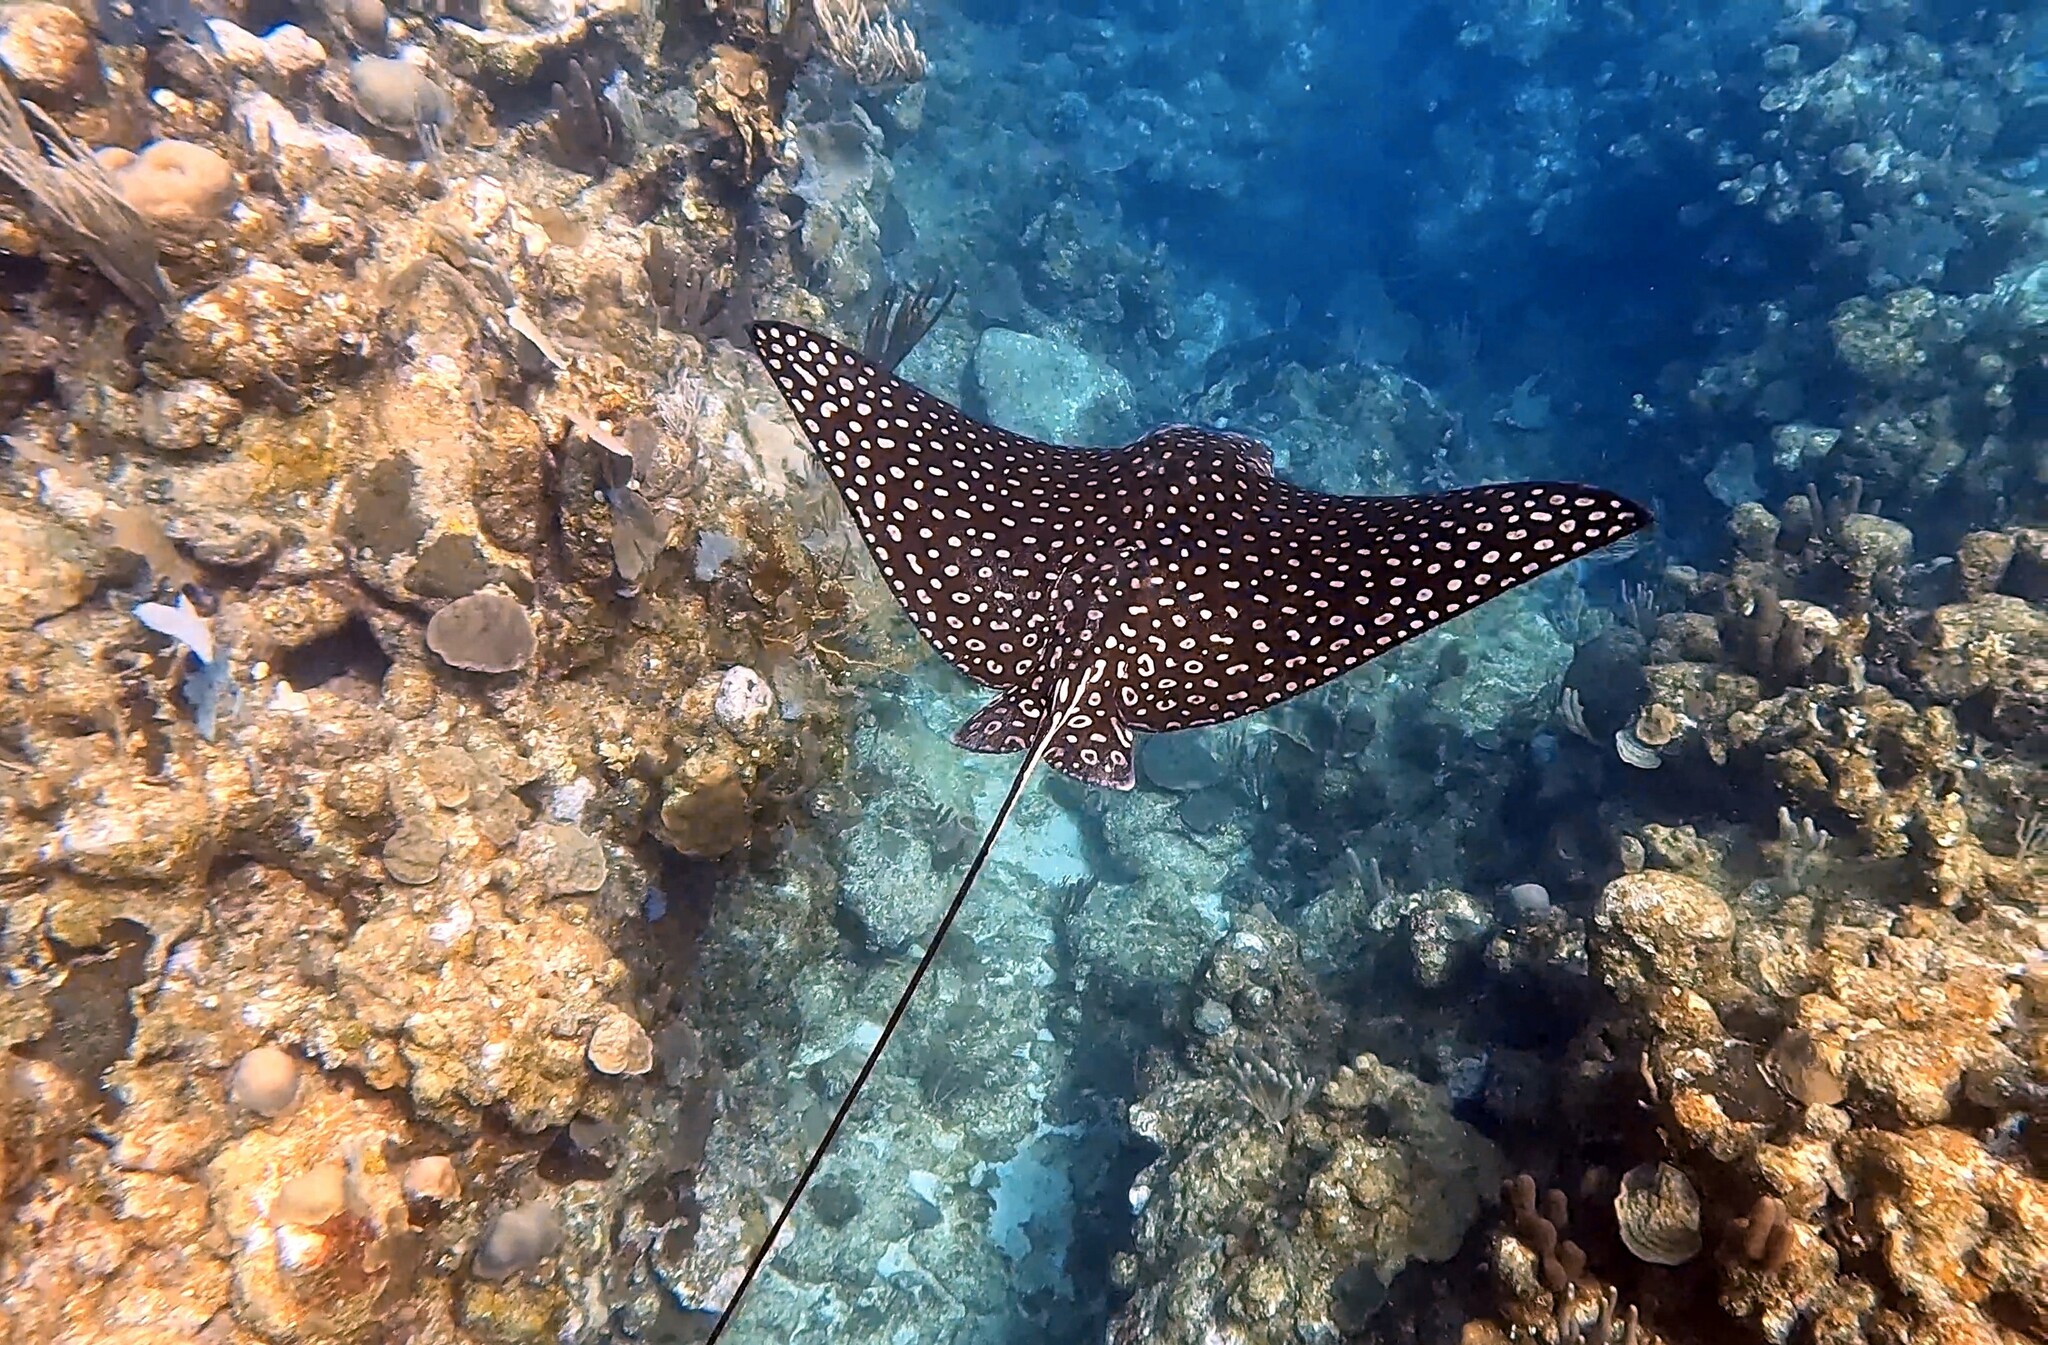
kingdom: Animalia
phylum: Chordata
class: Elasmobranchii
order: Myliobatiformes
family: Myliobatidae
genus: Aetobatus
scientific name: Aetobatus narinari
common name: Spotted eagle ray
